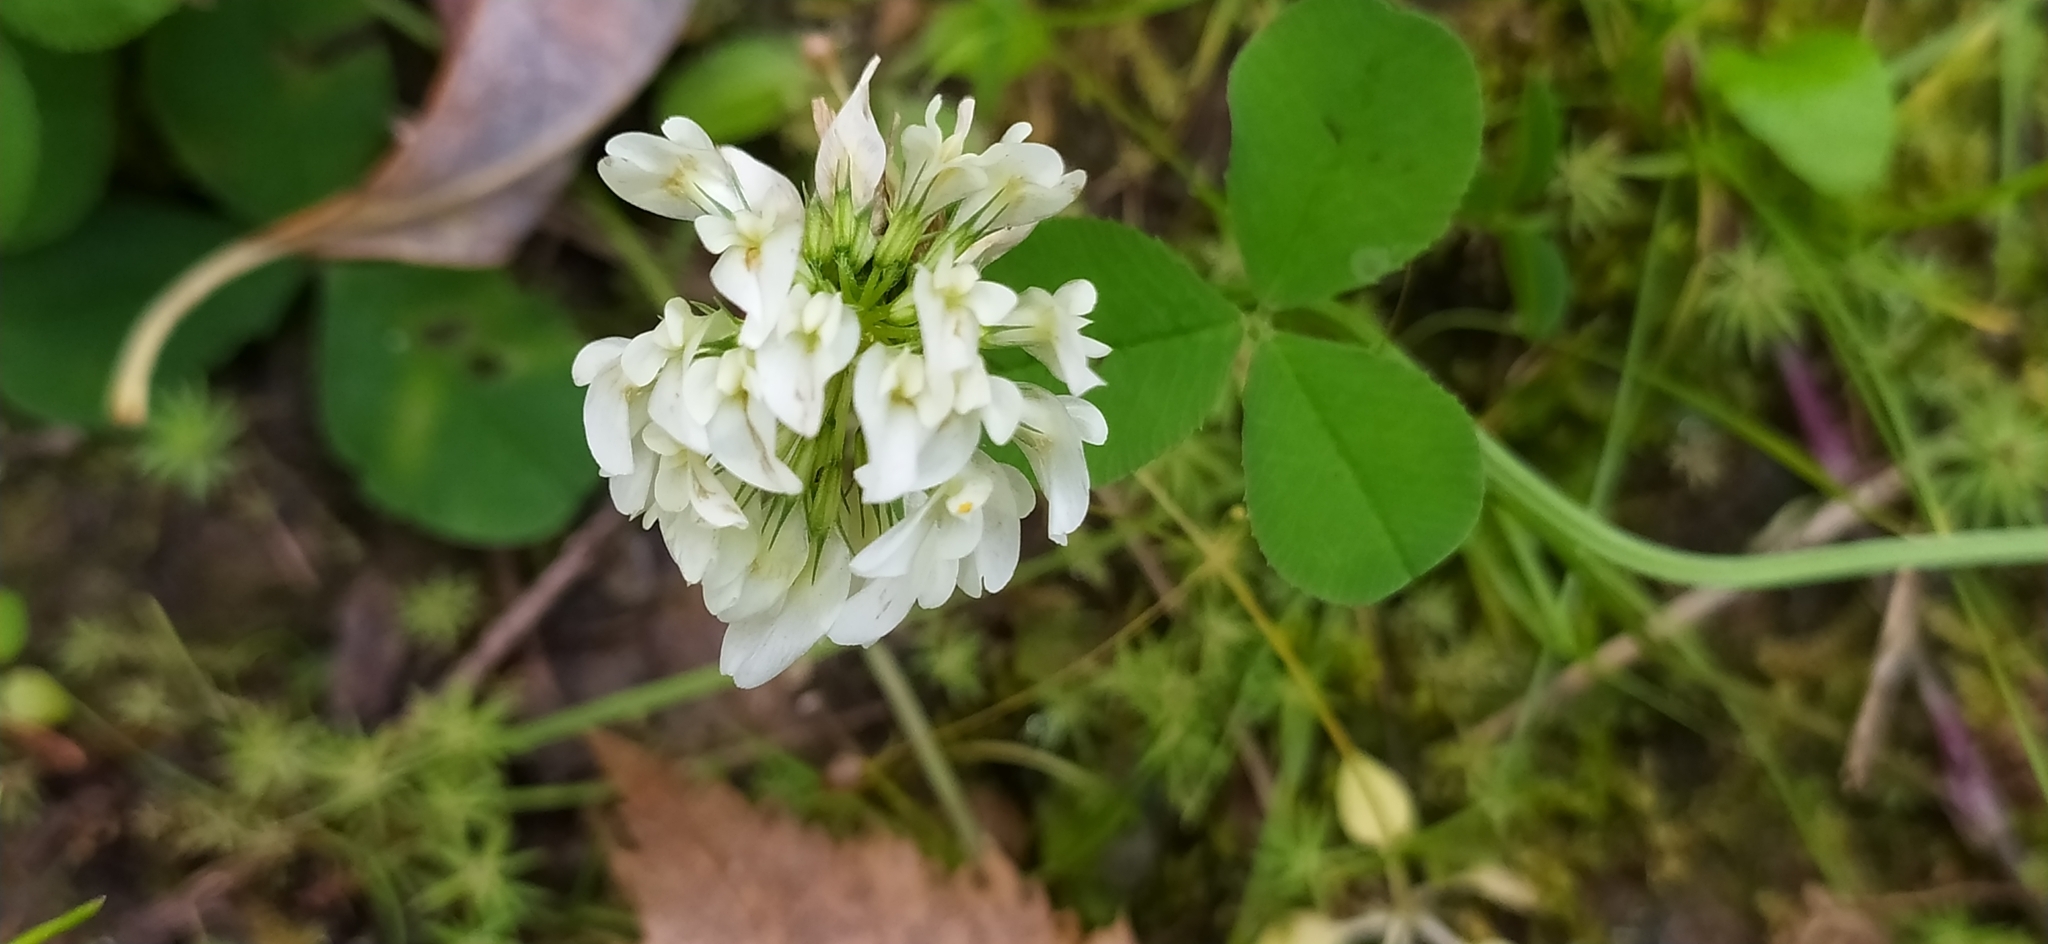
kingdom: Plantae
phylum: Tracheophyta
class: Magnoliopsida
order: Fabales
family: Fabaceae
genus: Trifolium
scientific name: Trifolium repens
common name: White clover
